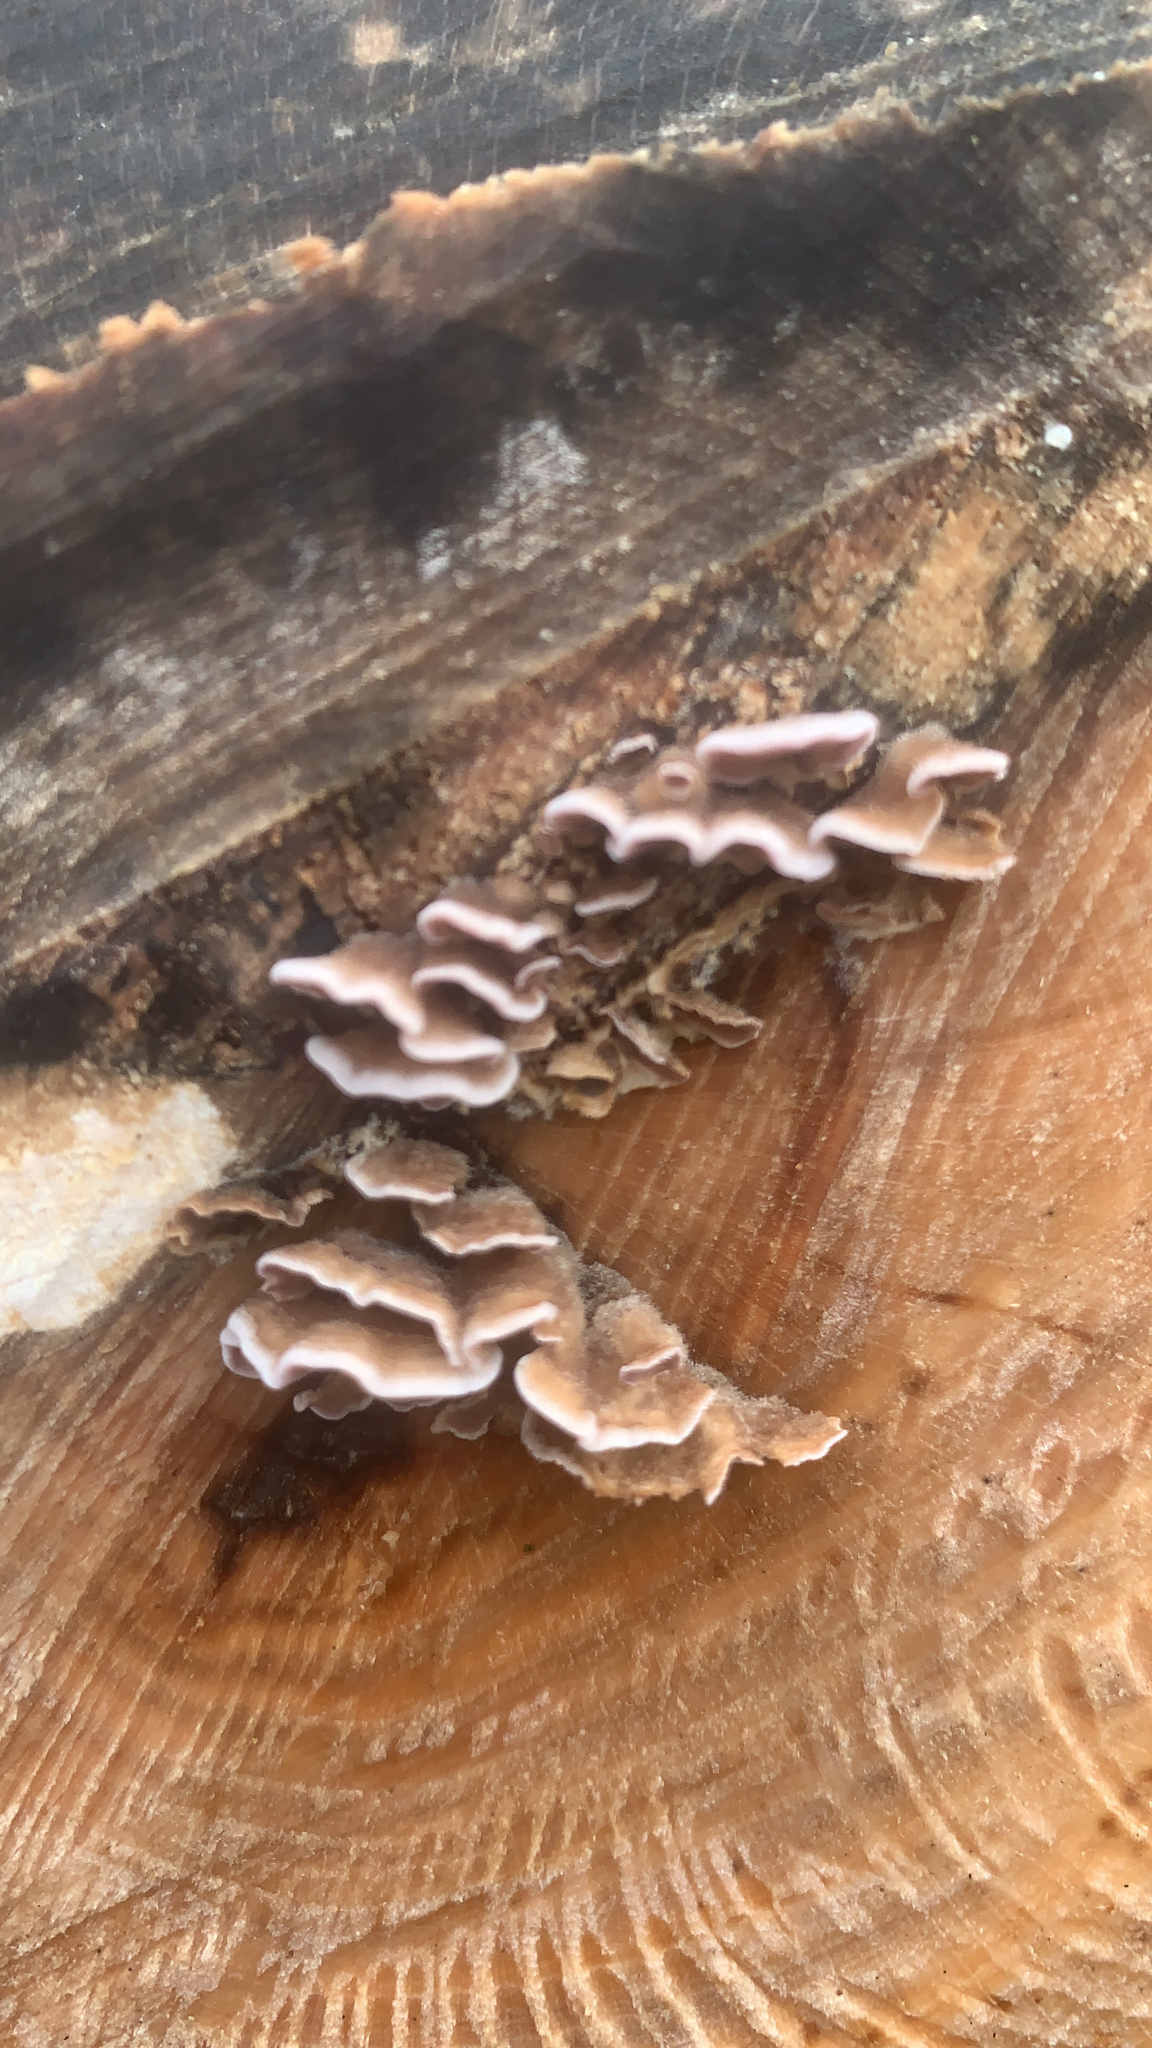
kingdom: Fungi
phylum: Basidiomycota
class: Agaricomycetes
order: Agaricales
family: Cyphellaceae
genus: Chondrostereum
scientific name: Chondrostereum purpureum
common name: Silver leaf disease
